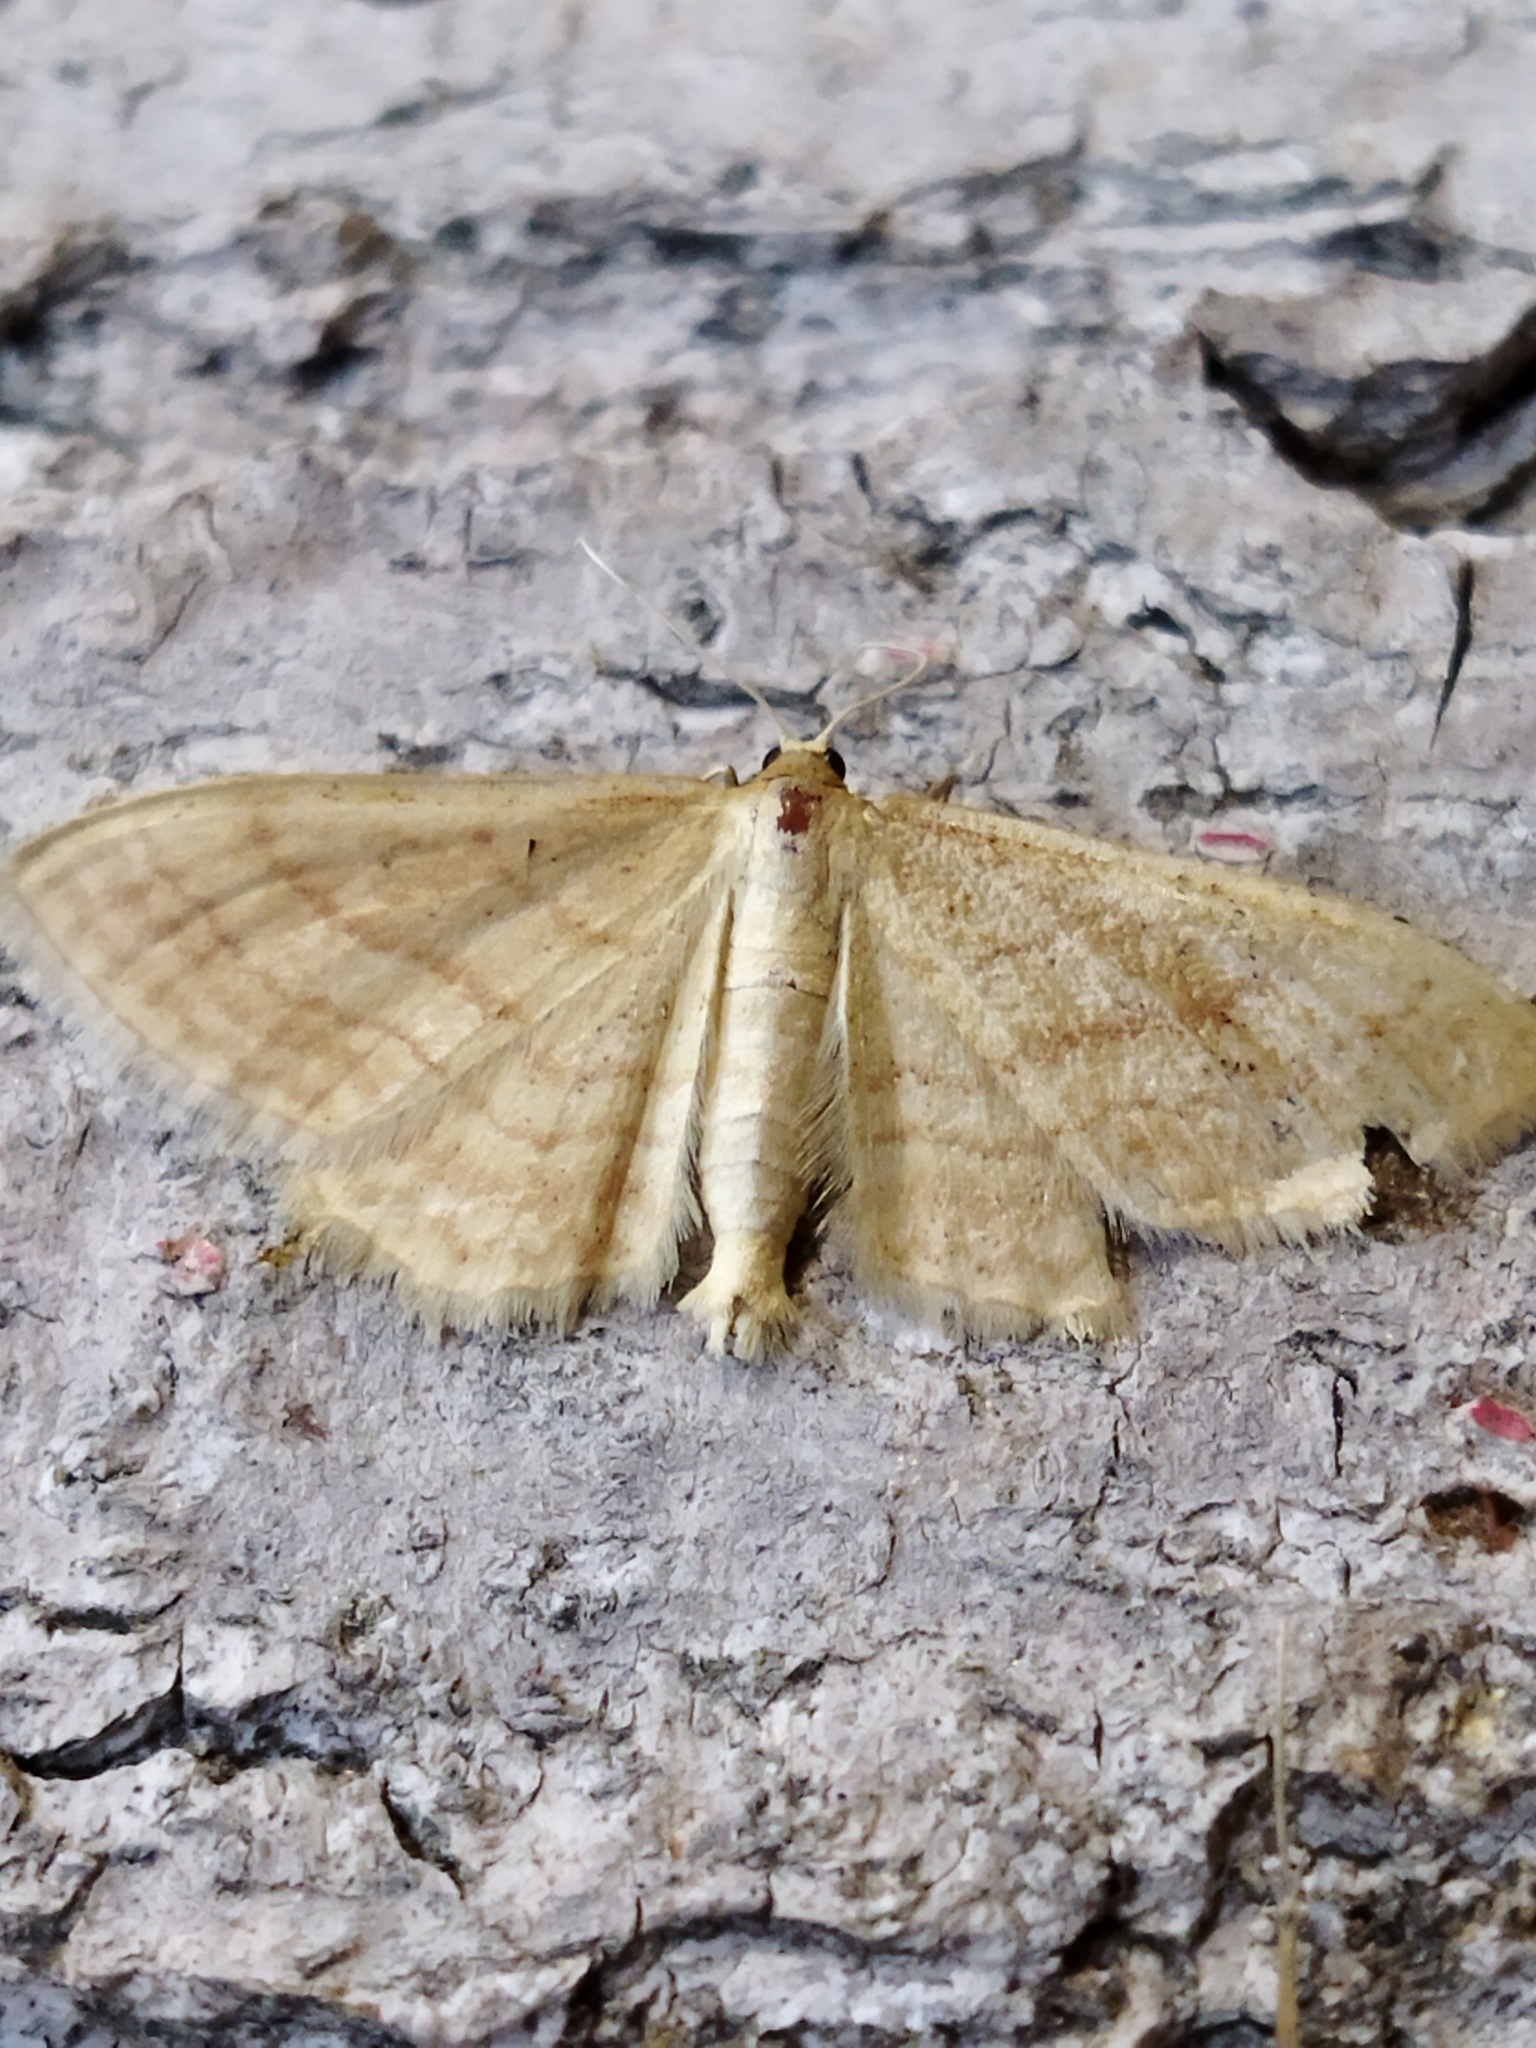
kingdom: Animalia
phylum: Arthropoda
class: Insecta
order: Lepidoptera
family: Geometridae
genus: Idaea
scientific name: Idaea rufaria
